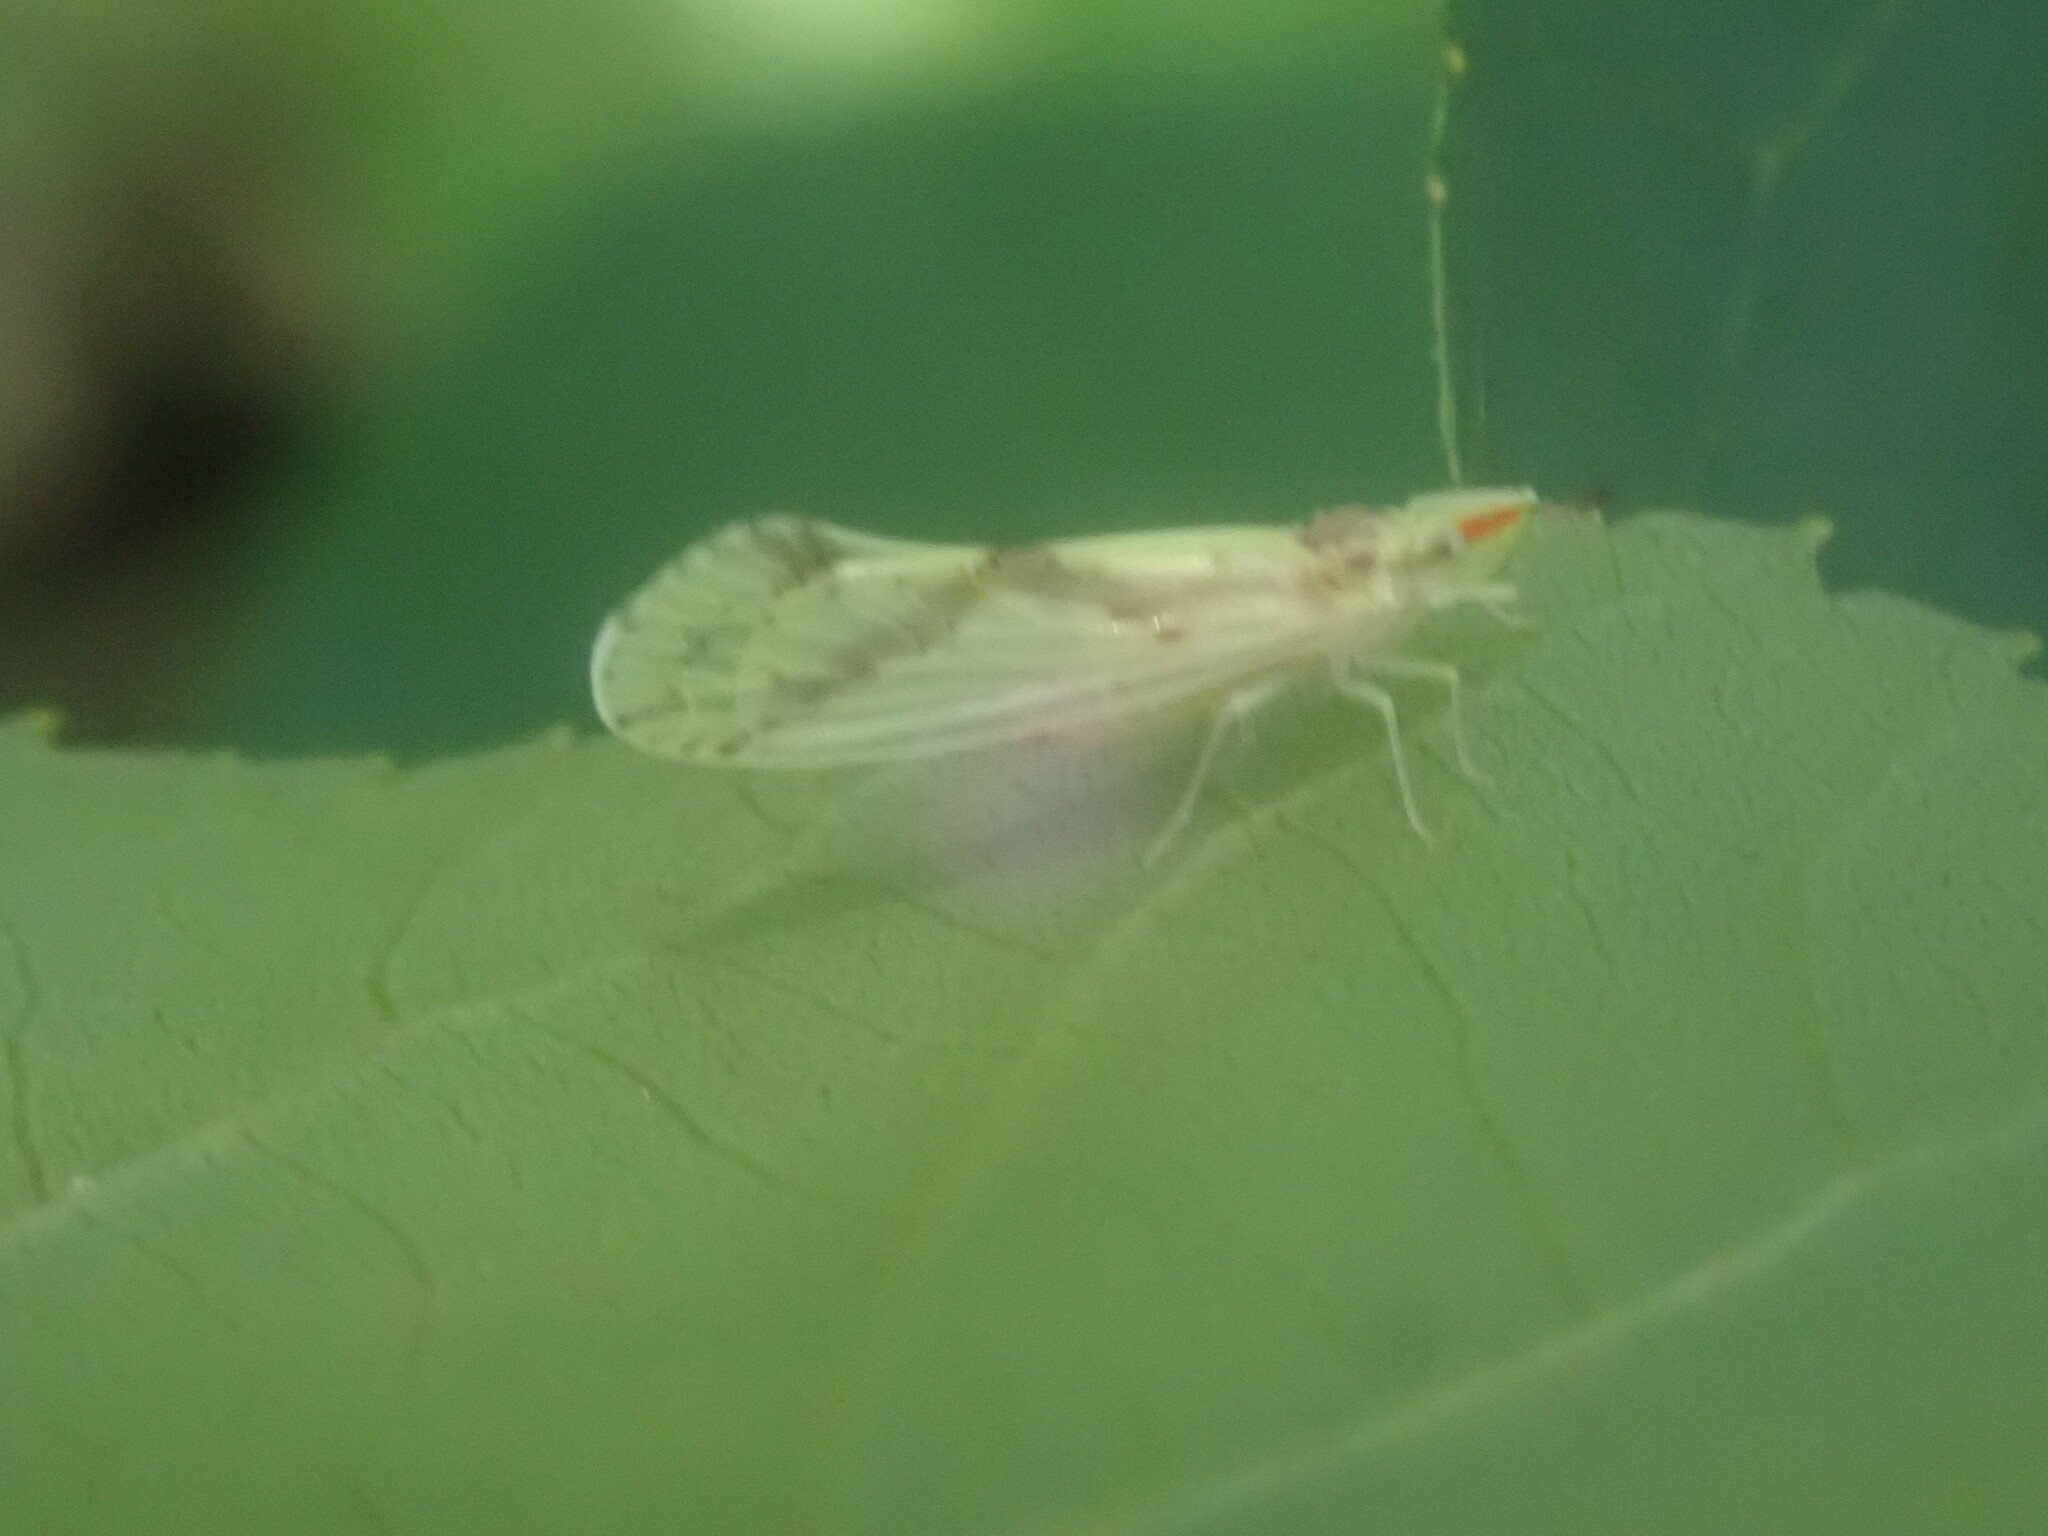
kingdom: Animalia
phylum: Arthropoda
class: Insecta
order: Hemiptera
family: Derbidae
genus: Otiocerus
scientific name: Otiocerus wolfii
